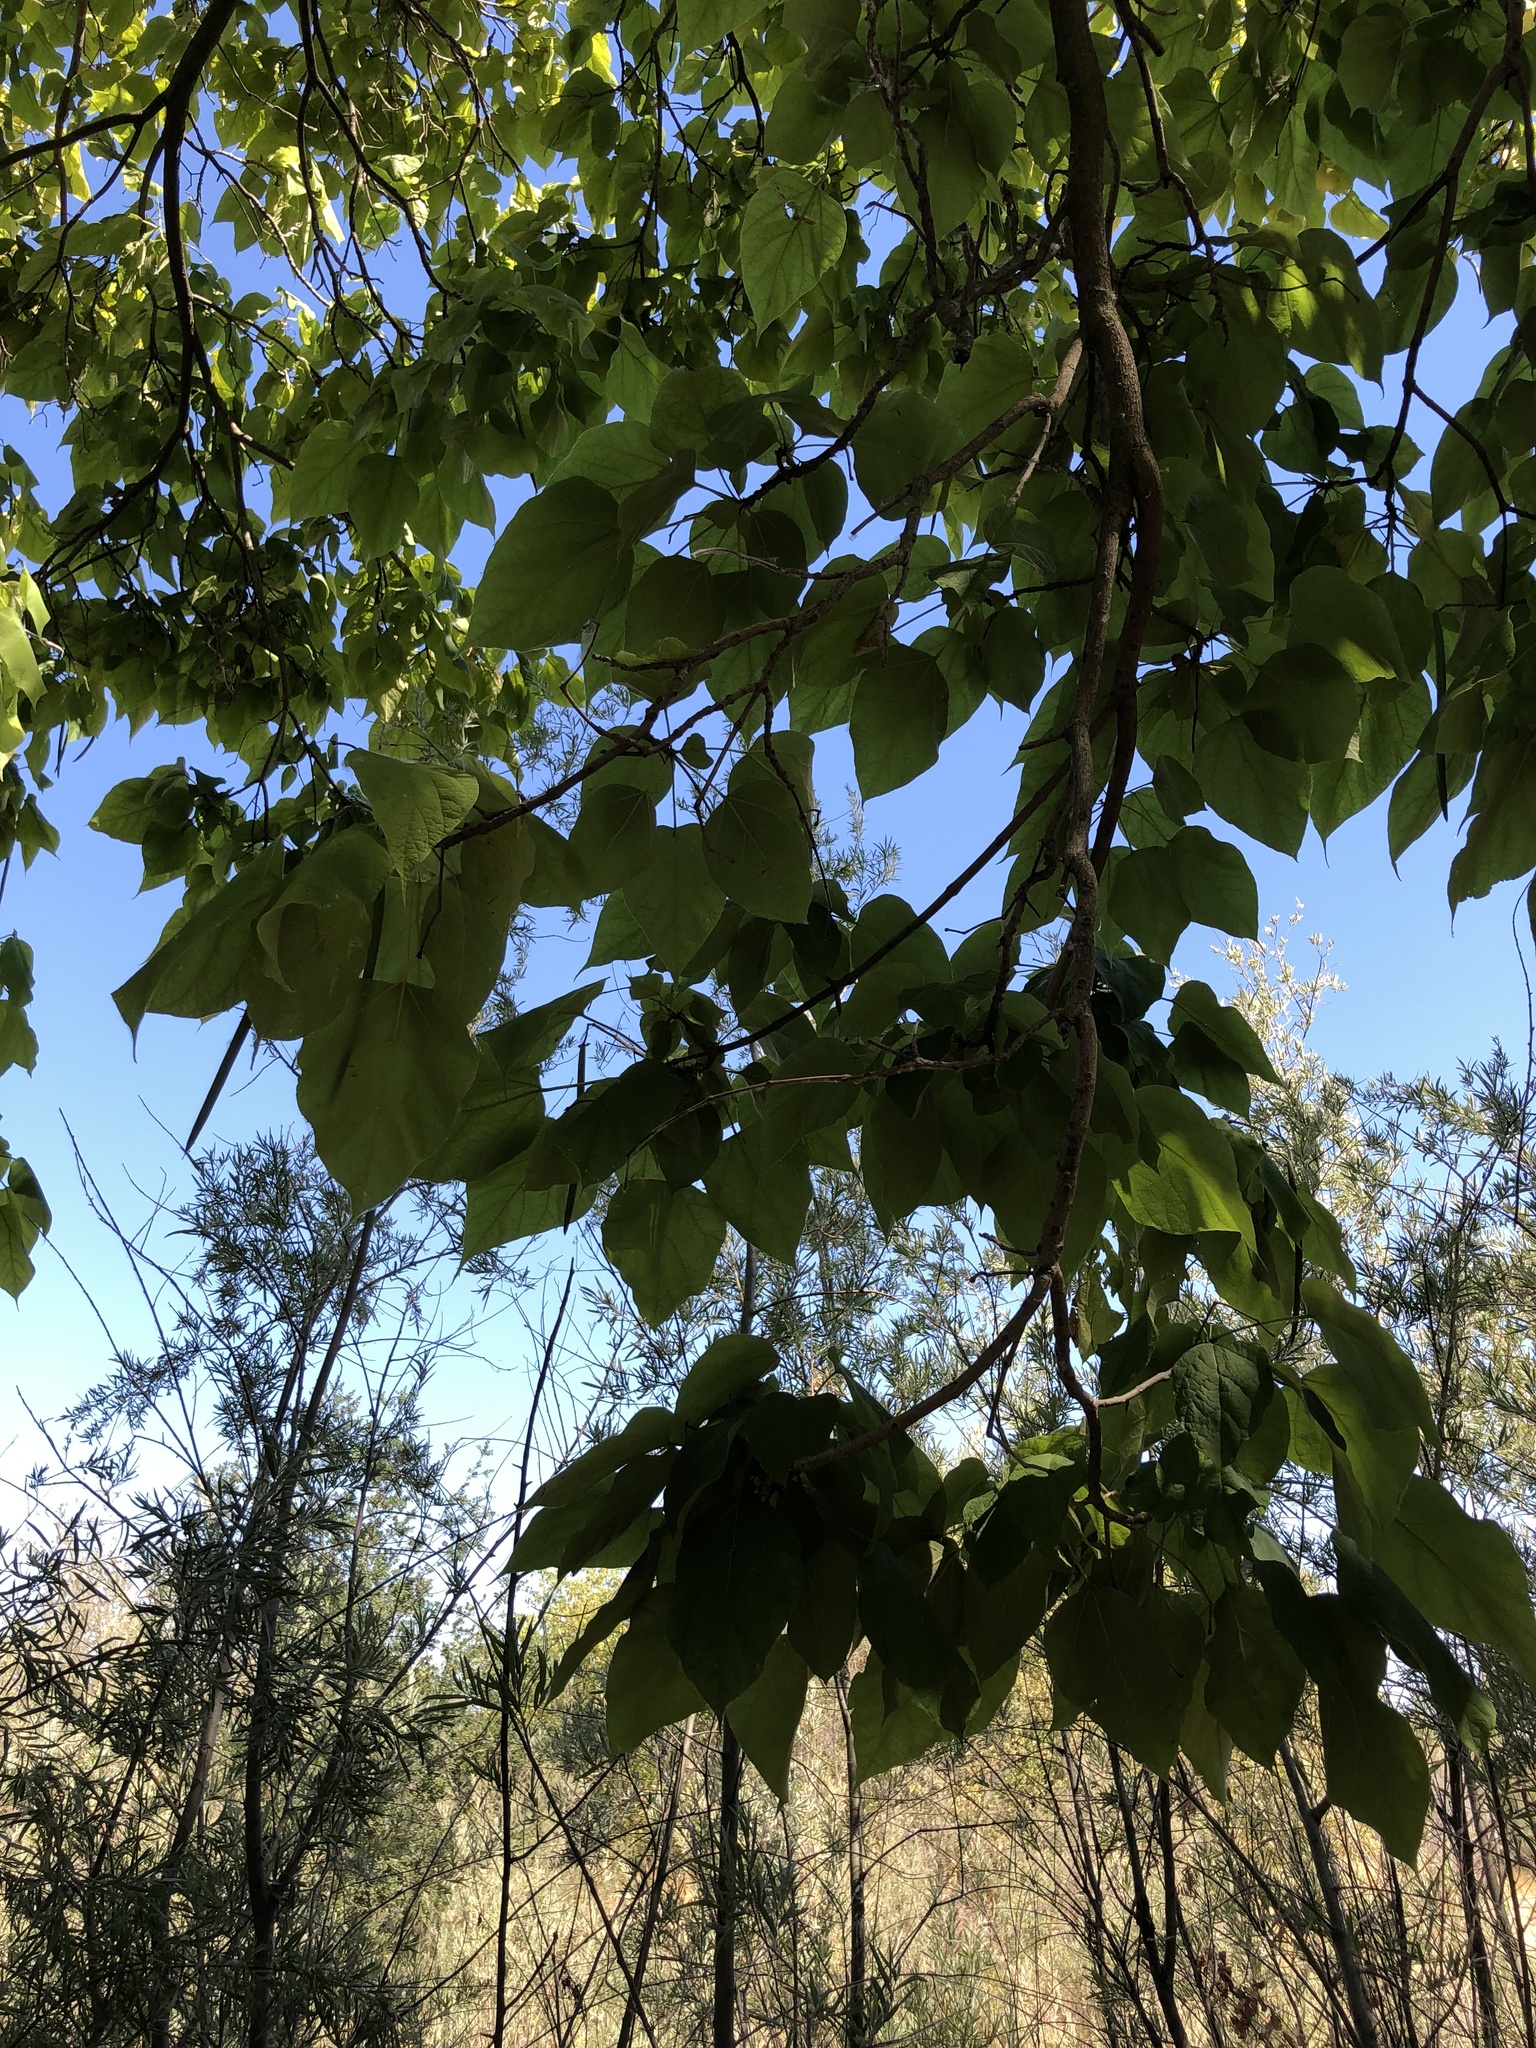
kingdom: Plantae
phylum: Tracheophyta
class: Magnoliopsida
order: Lamiales
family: Bignoniaceae
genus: Catalpa
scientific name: Catalpa speciosa
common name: Northern catalpa
